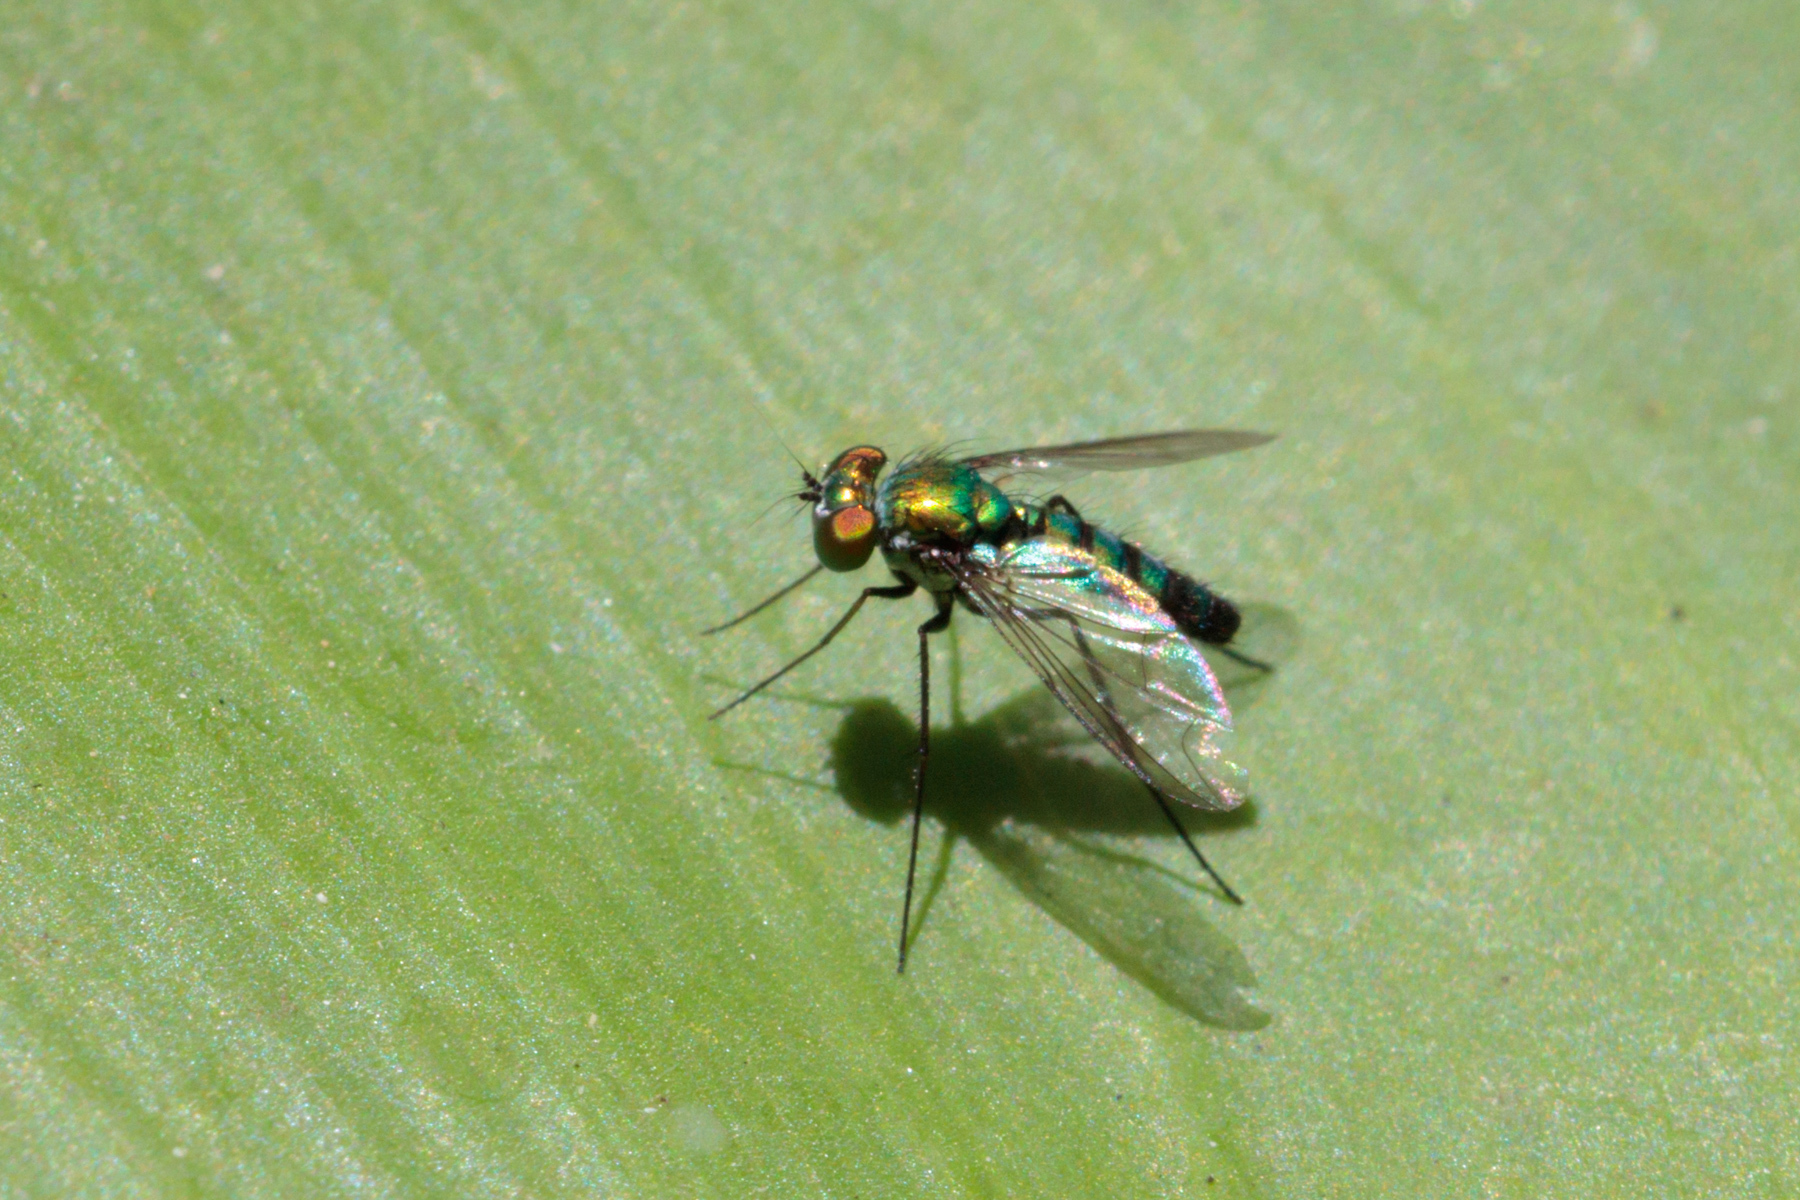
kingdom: Animalia
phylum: Arthropoda
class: Insecta
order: Diptera
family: Dolichopodidae
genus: Condylostylus
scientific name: Condylostylus longicornis
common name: Long-legged fly
